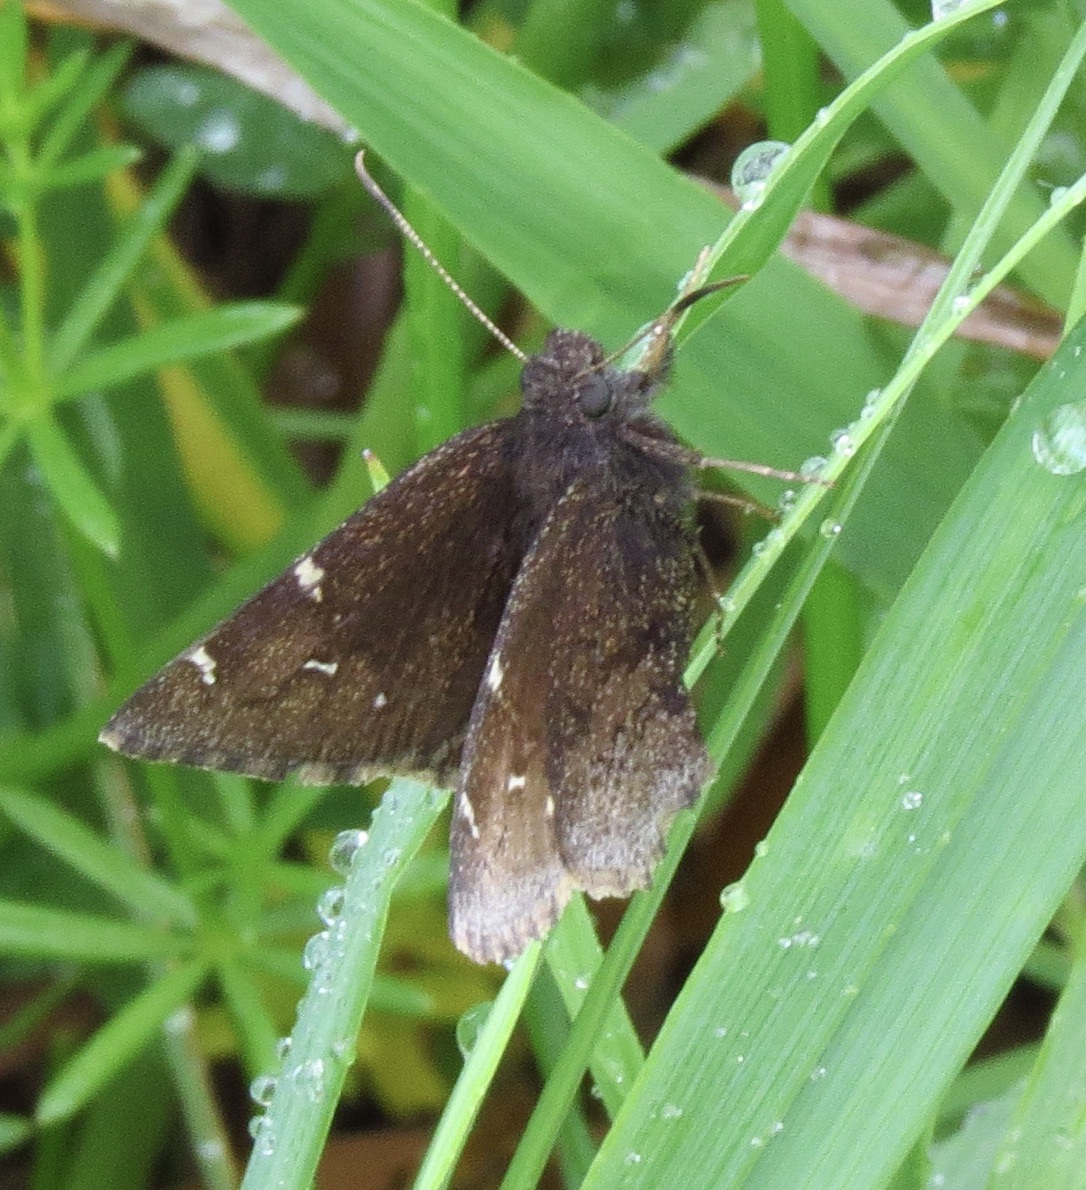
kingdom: Animalia
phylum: Arthropoda
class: Insecta
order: Lepidoptera
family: Hesperiidae
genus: Thorybes
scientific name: Thorybes pylades
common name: Northern cloudywing
